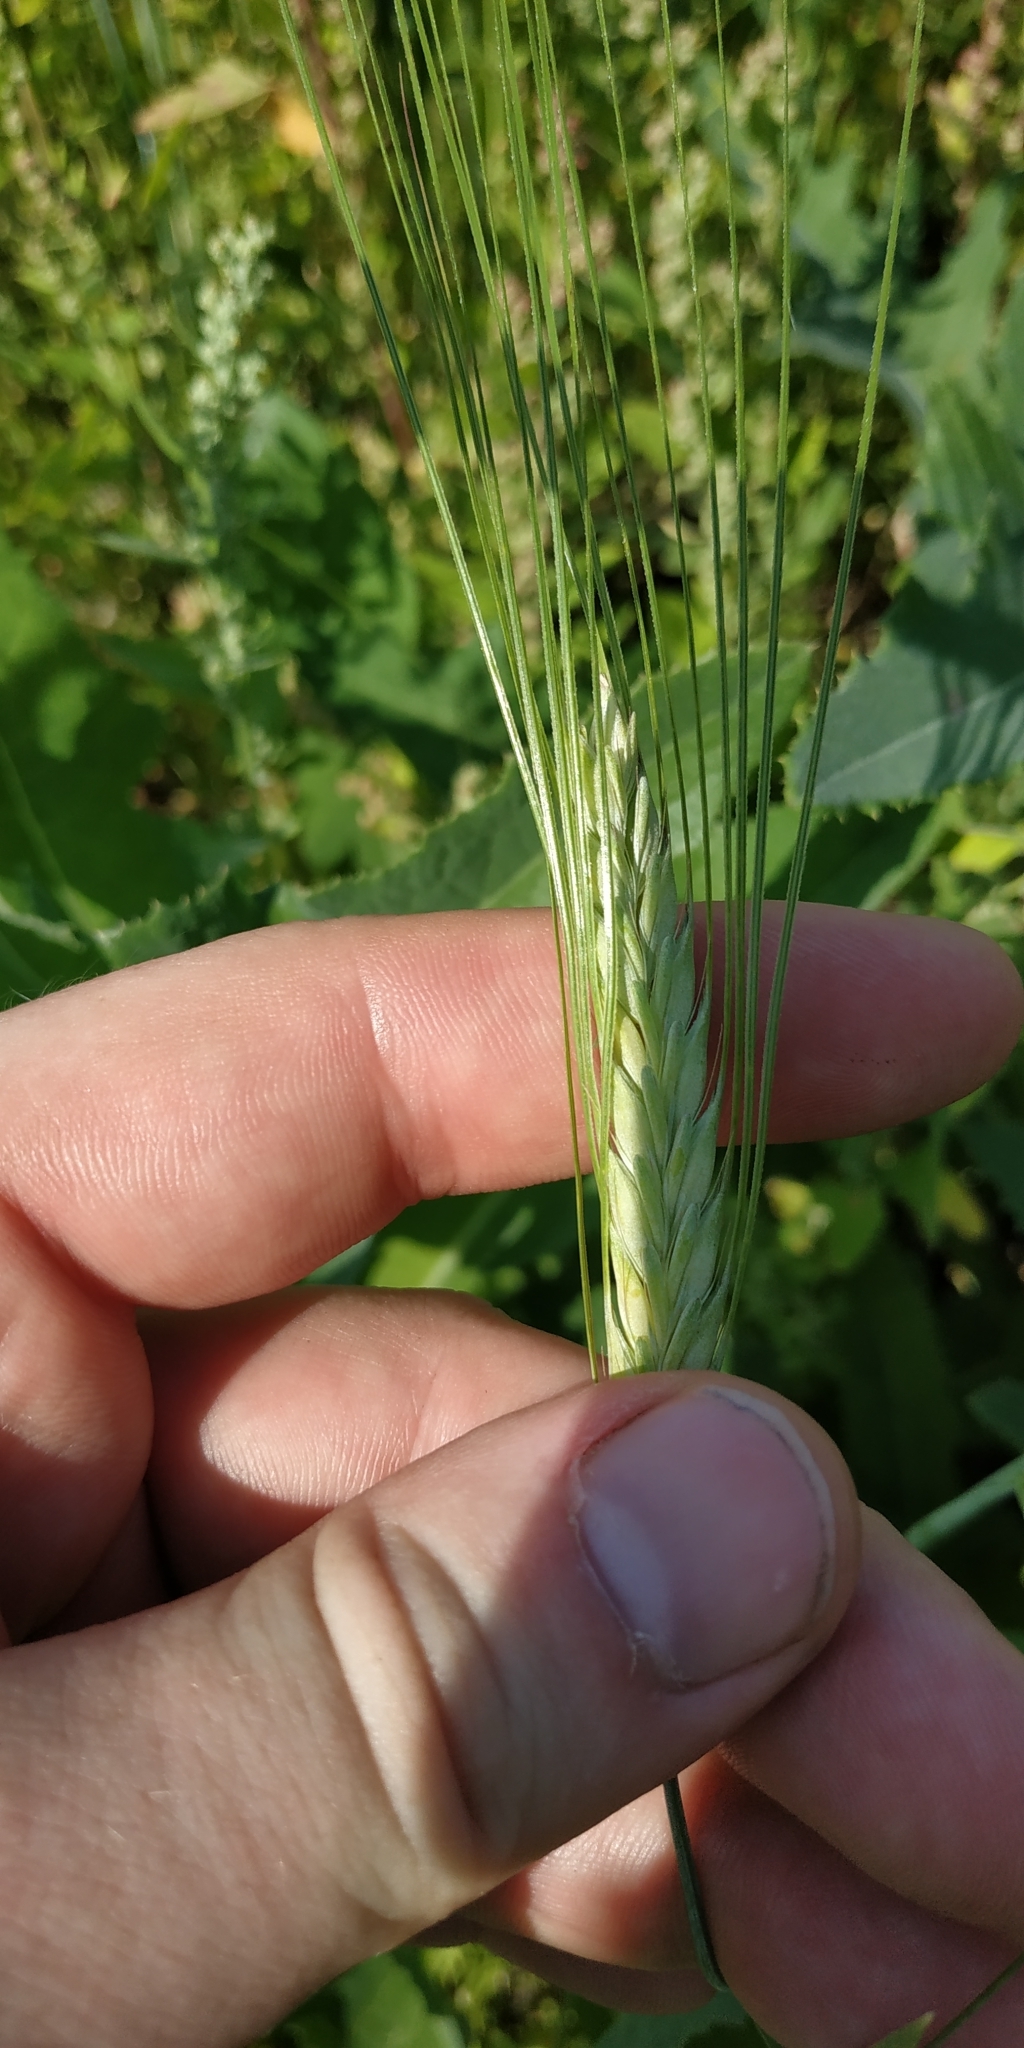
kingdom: Plantae
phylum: Tracheophyta
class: Liliopsida
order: Poales
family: Poaceae
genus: Hordeum
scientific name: Hordeum distichon
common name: Two-rowed barley
